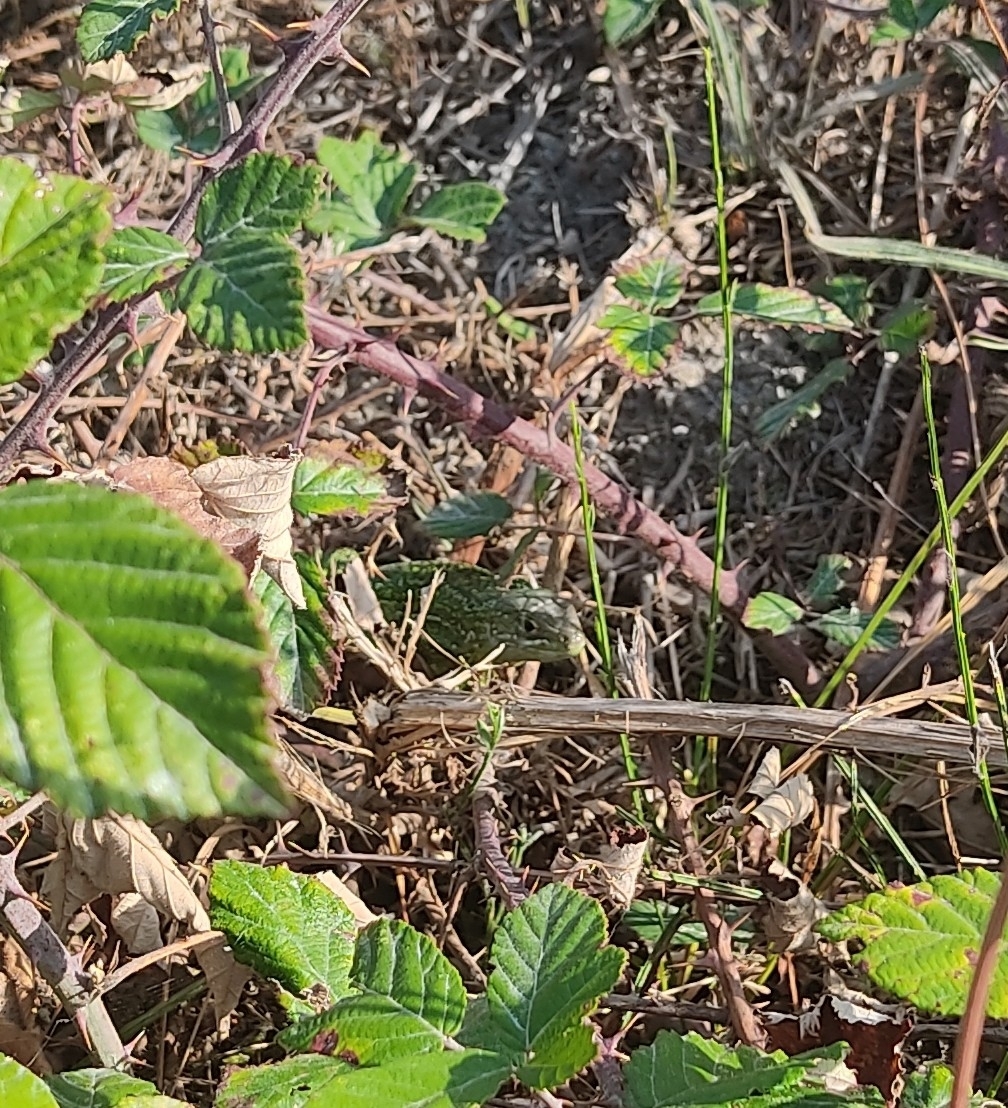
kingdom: Animalia
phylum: Chordata
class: Squamata
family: Lacertidae
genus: Lacerta
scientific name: Lacerta bilineata
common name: Western green lizard
